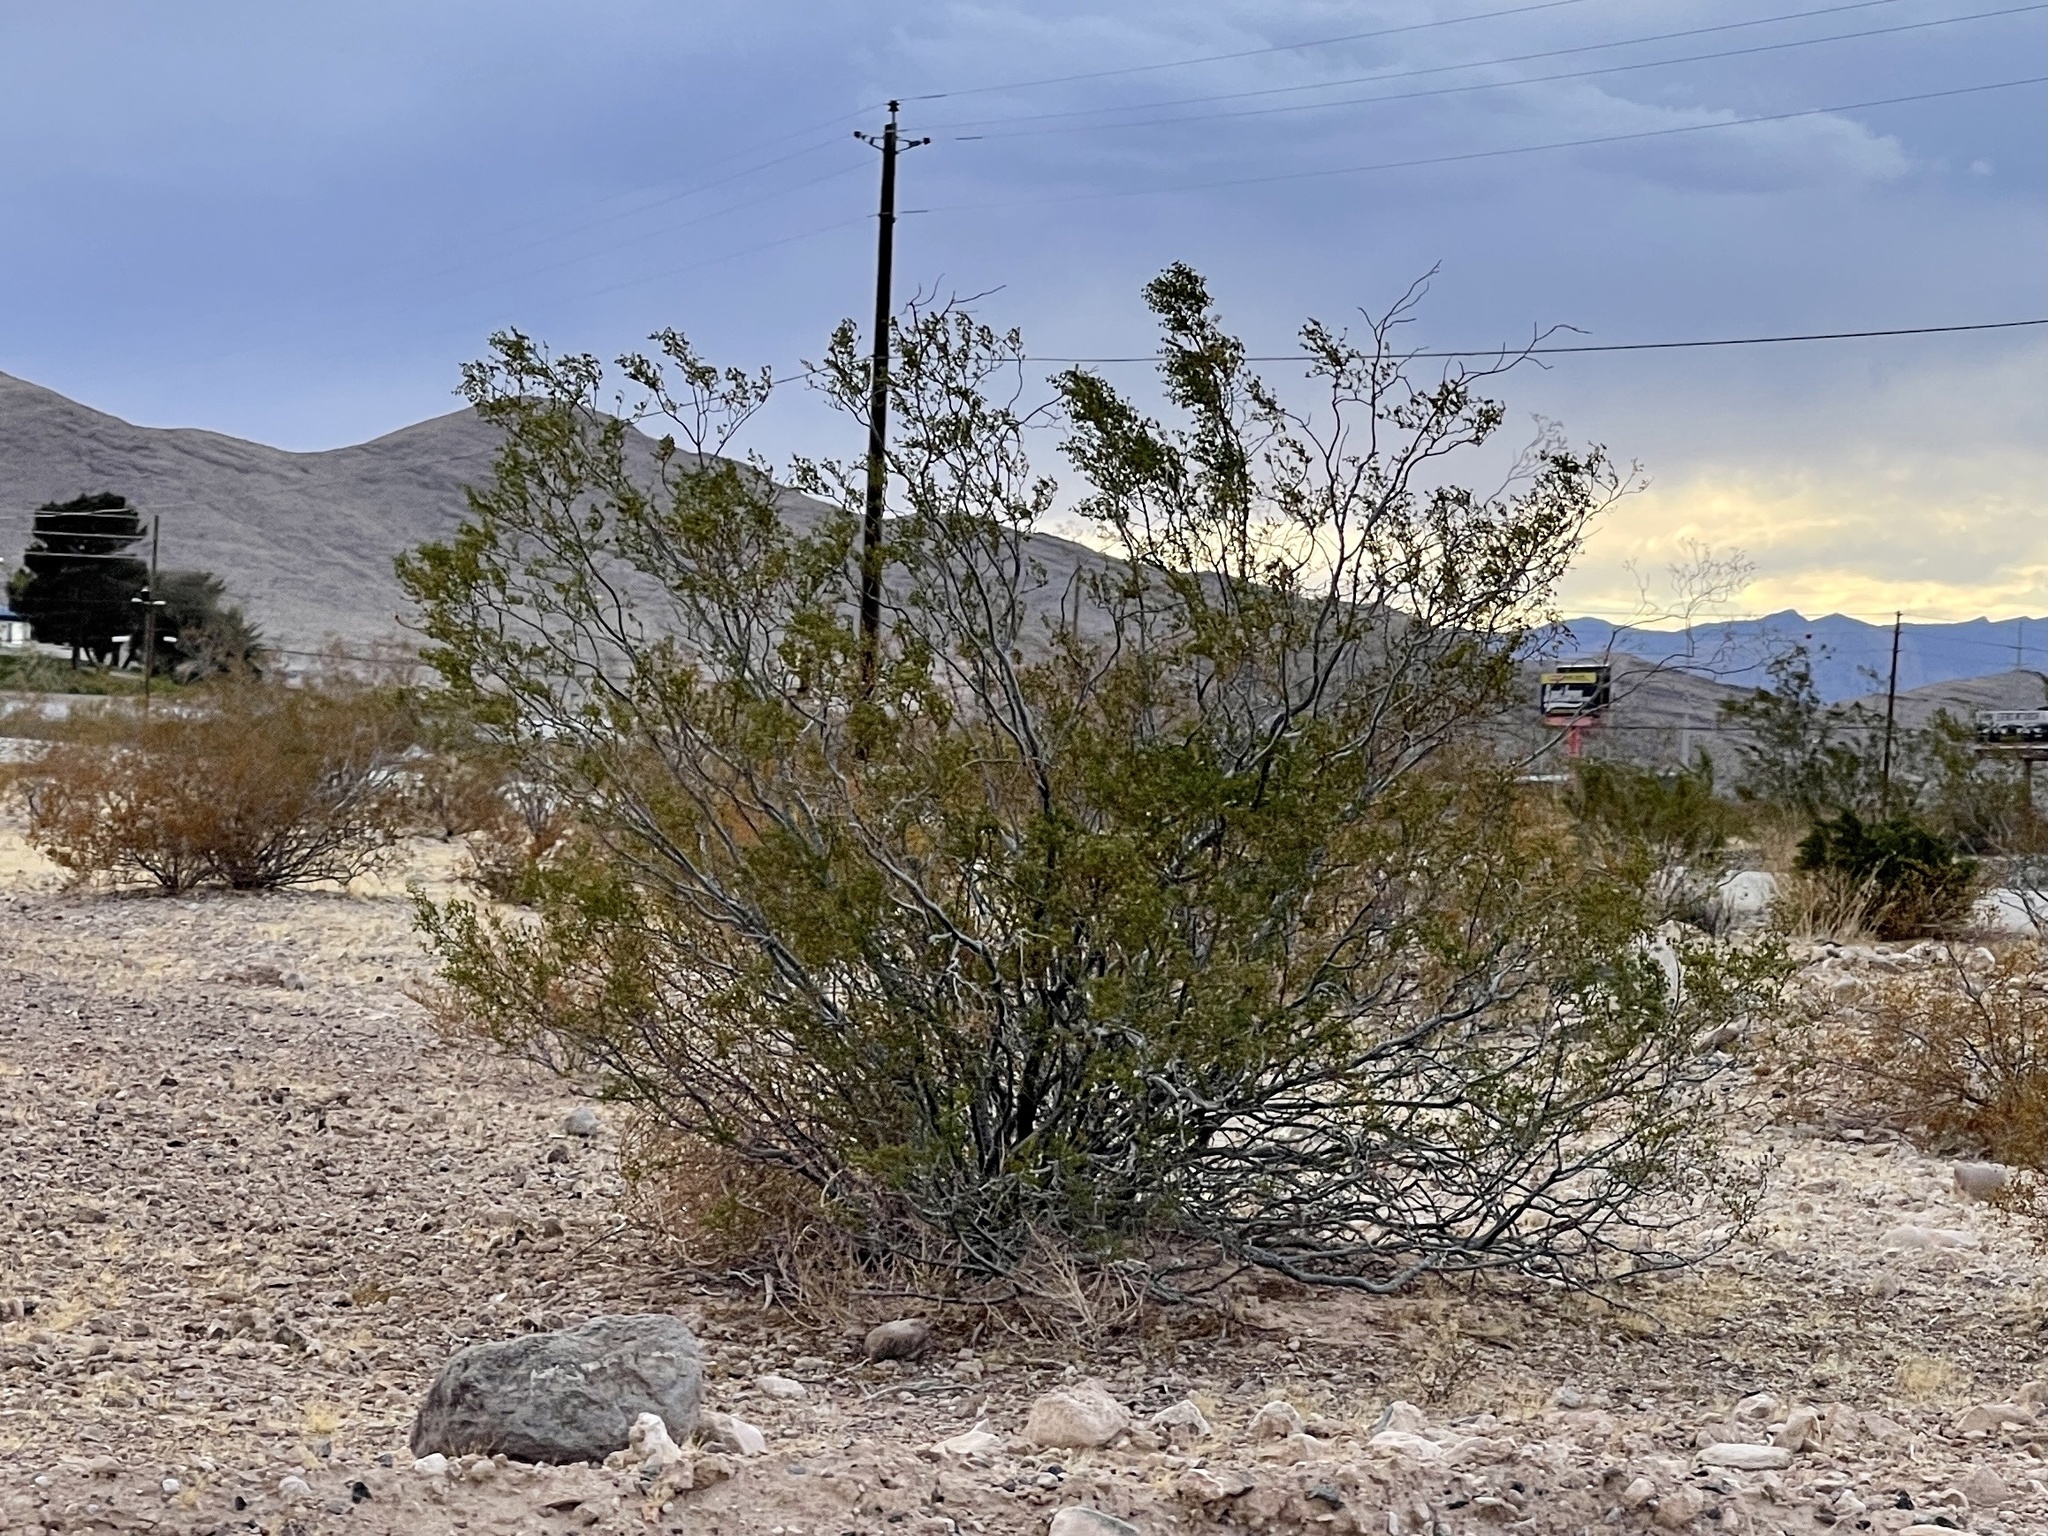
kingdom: Plantae
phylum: Tracheophyta
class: Magnoliopsida
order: Zygophyllales
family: Zygophyllaceae
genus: Larrea
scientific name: Larrea tridentata
